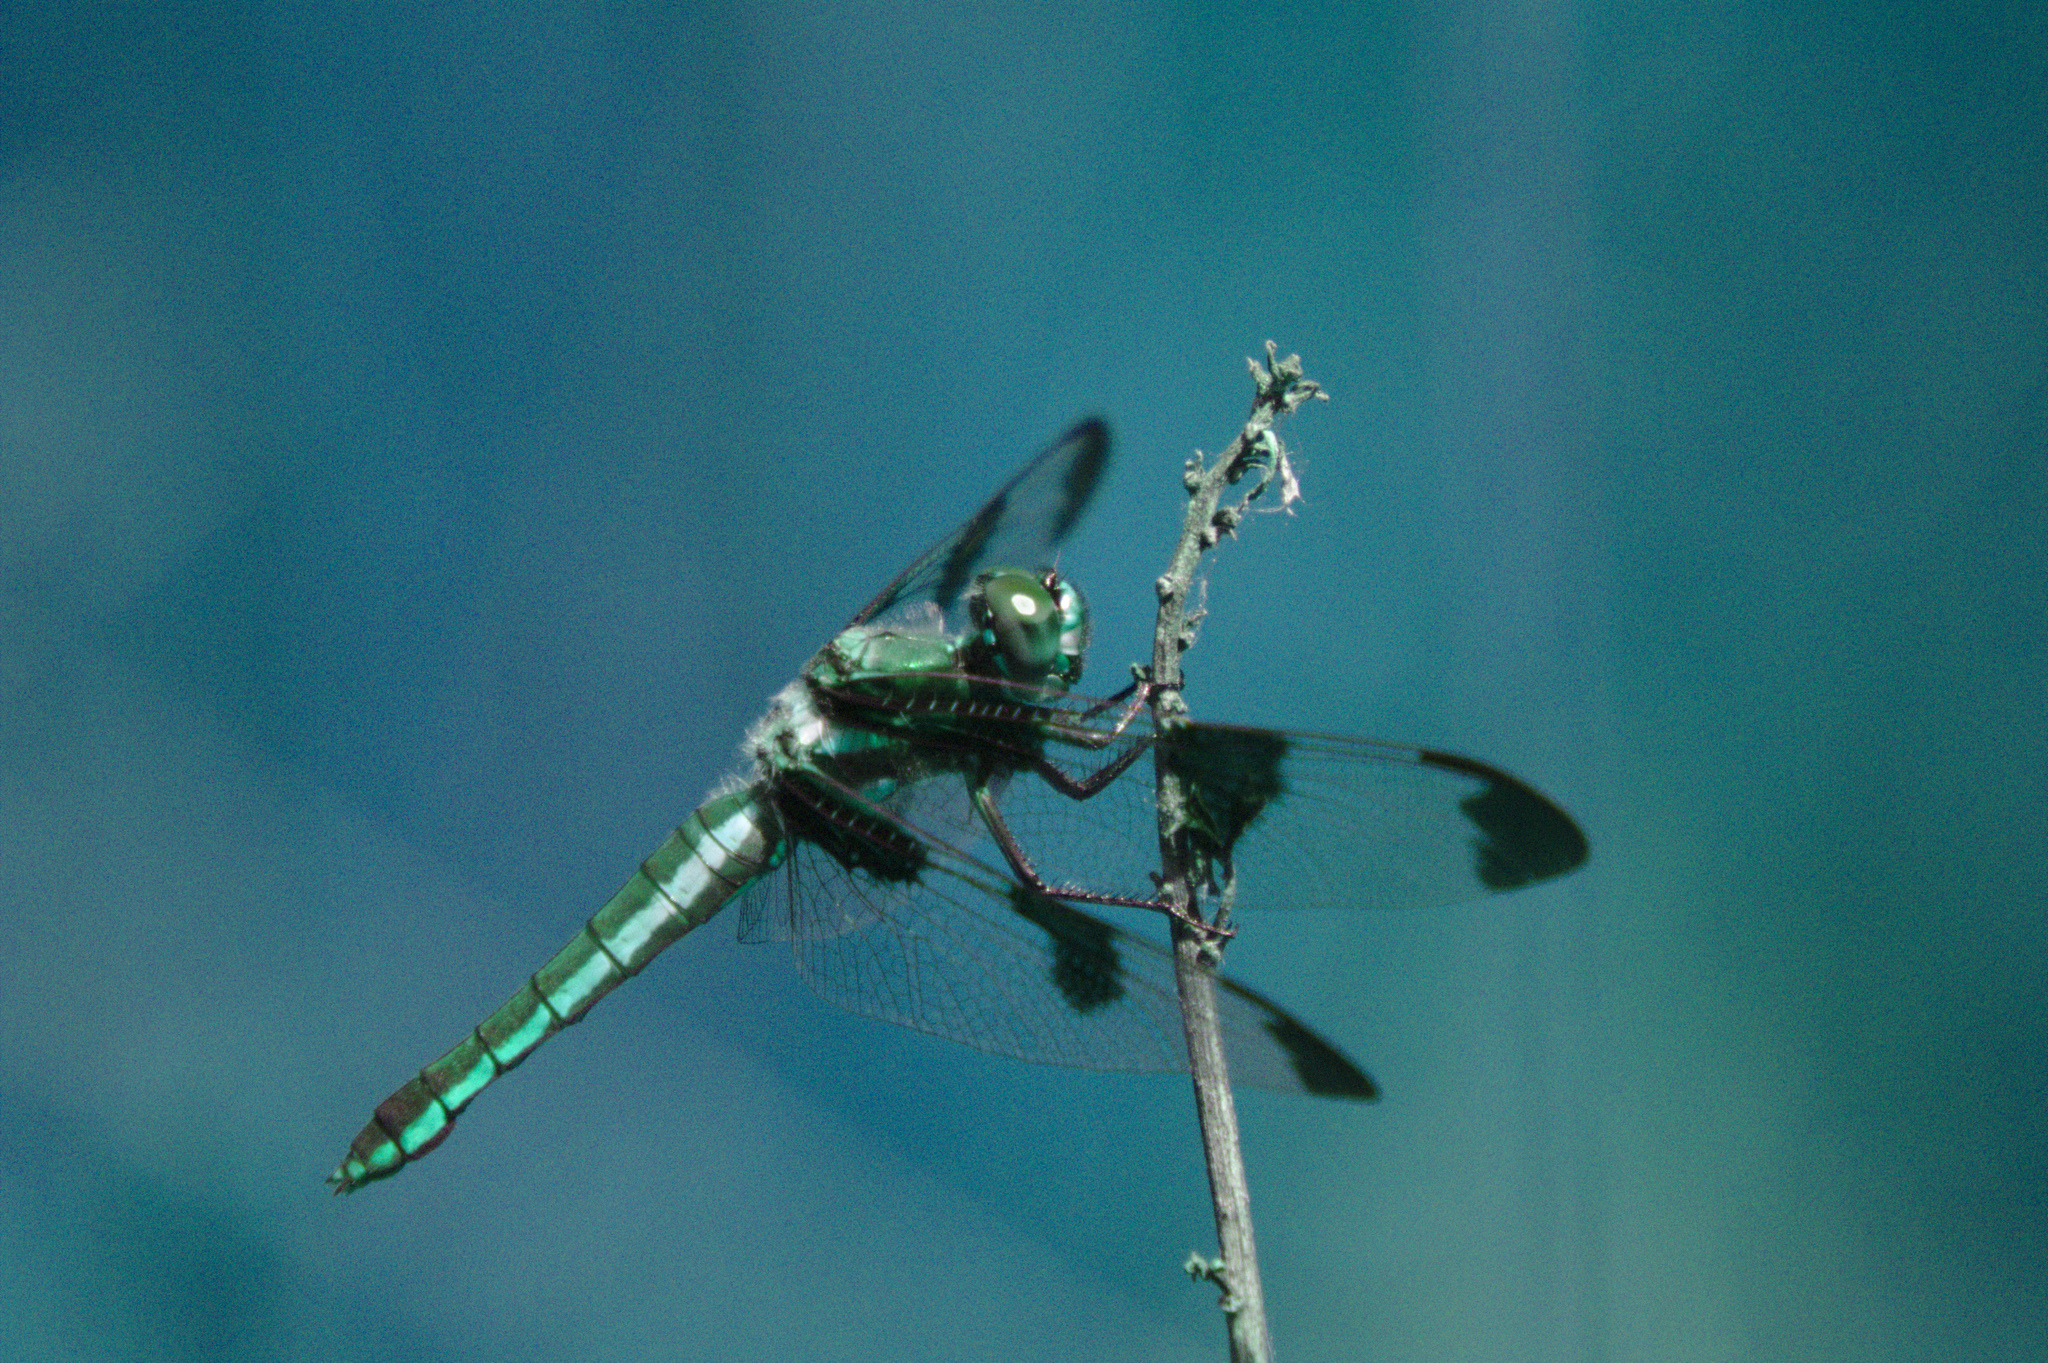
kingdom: Animalia
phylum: Arthropoda
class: Insecta
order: Odonata
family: Libellulidae
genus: Libellula
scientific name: Libellula pulchella
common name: Twelve-spotted skimmer
